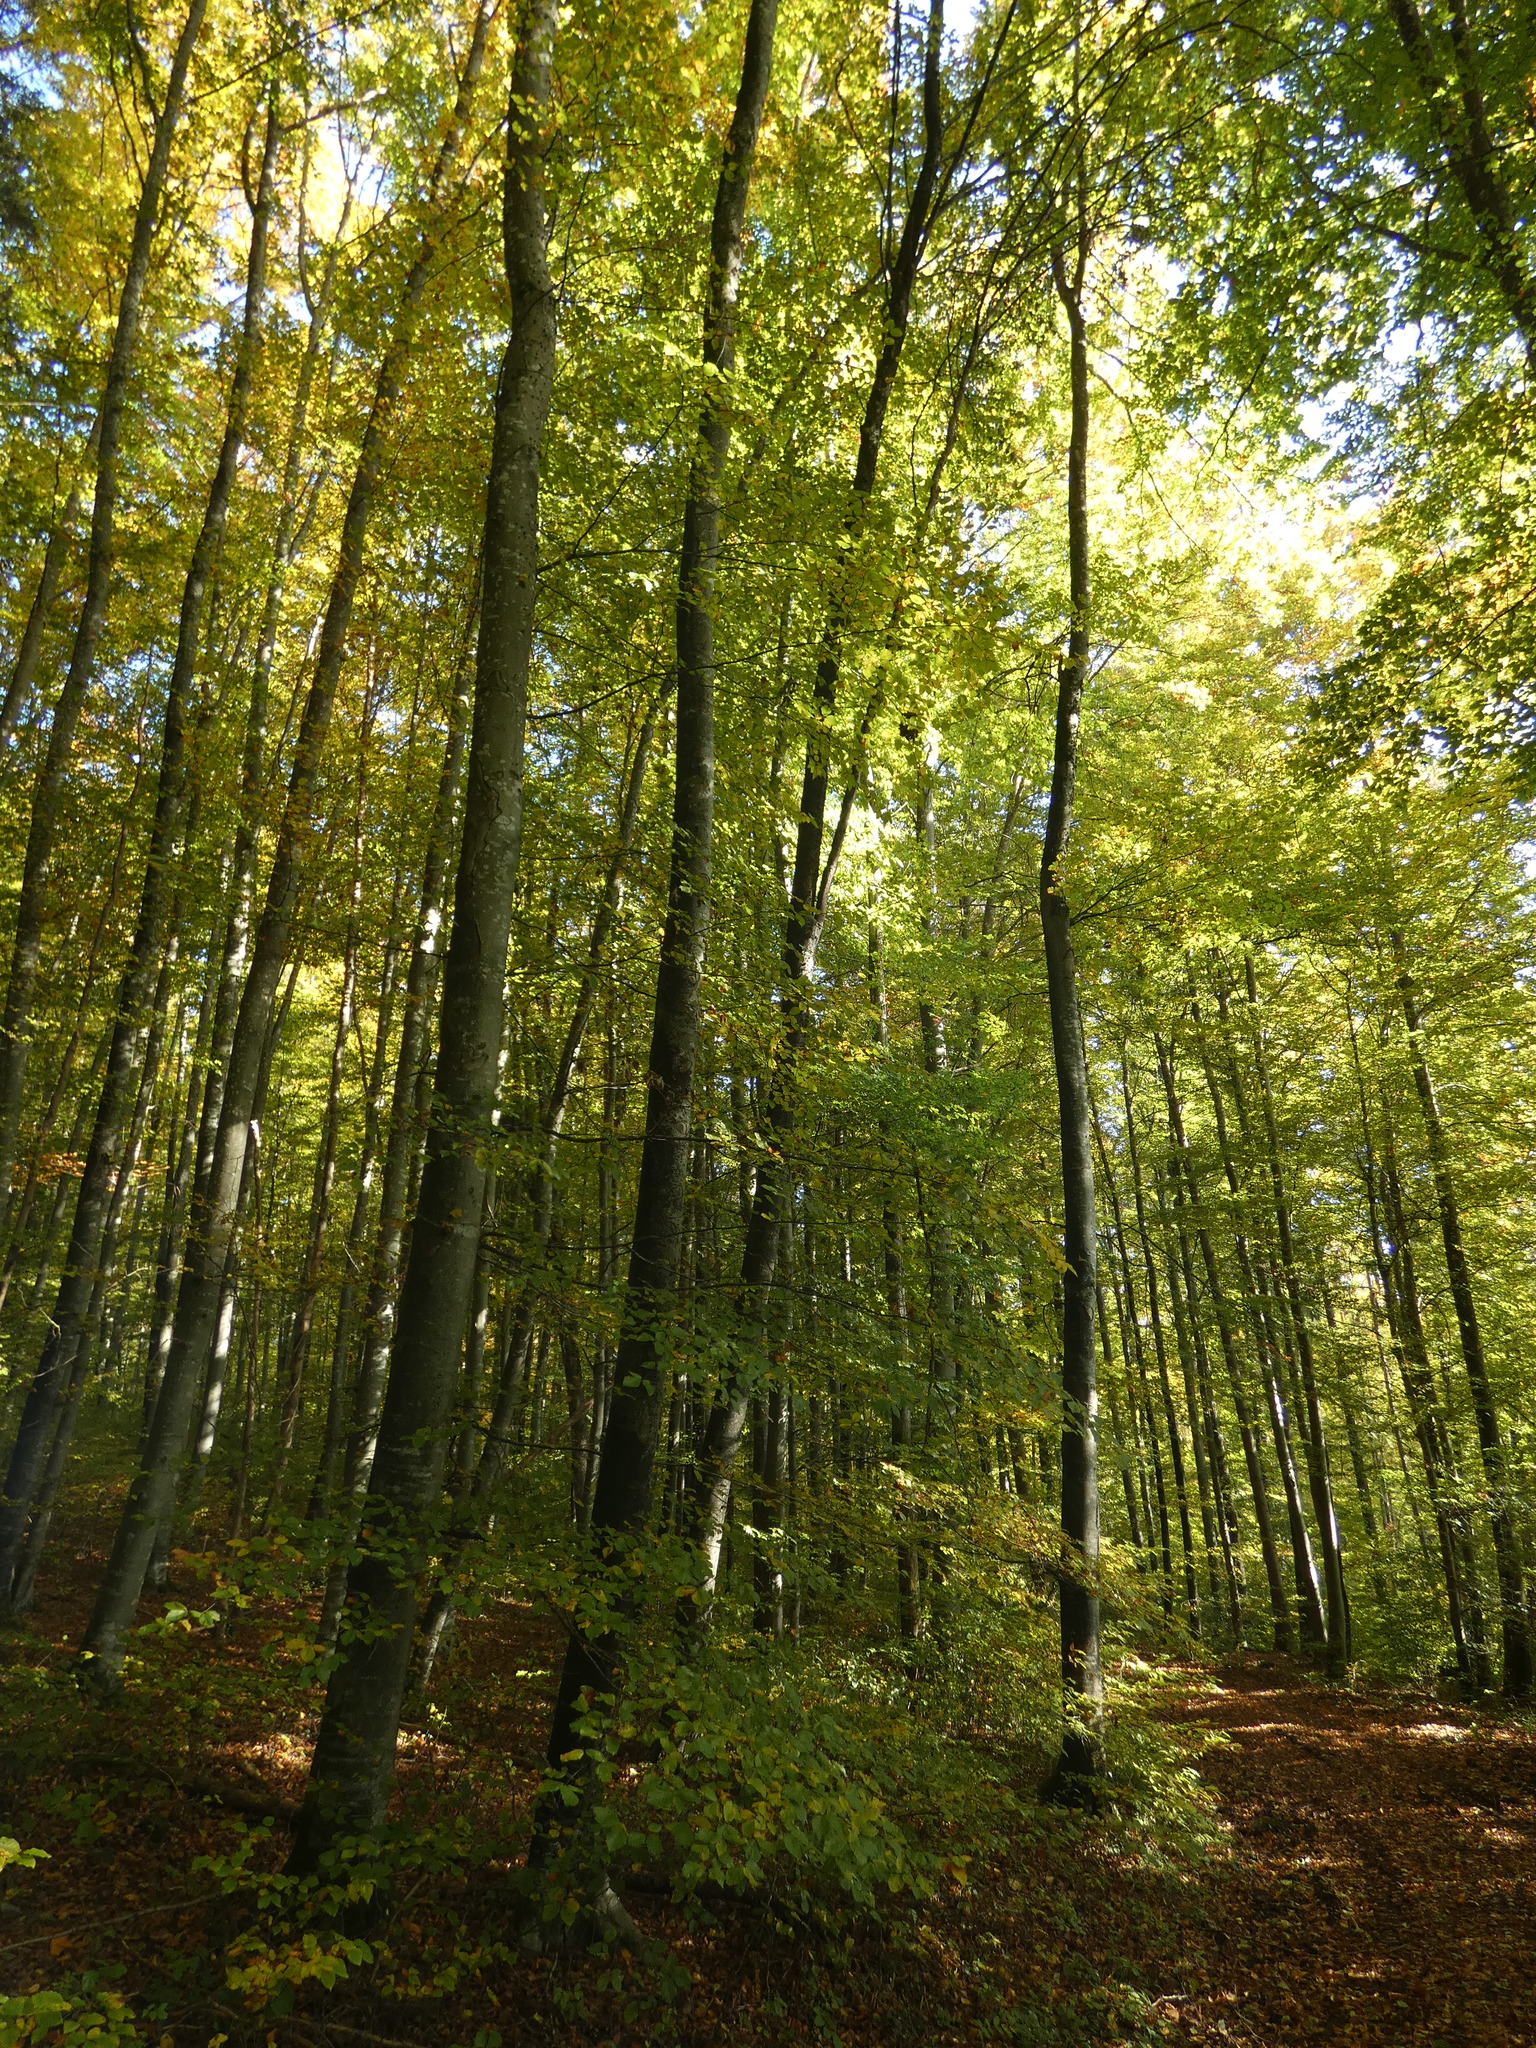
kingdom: Plantae
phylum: Tracheophyta
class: Magnoliopsida
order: Fagales
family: Fagaceae
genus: Fagus
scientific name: Fagus sylvatica
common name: Beech
